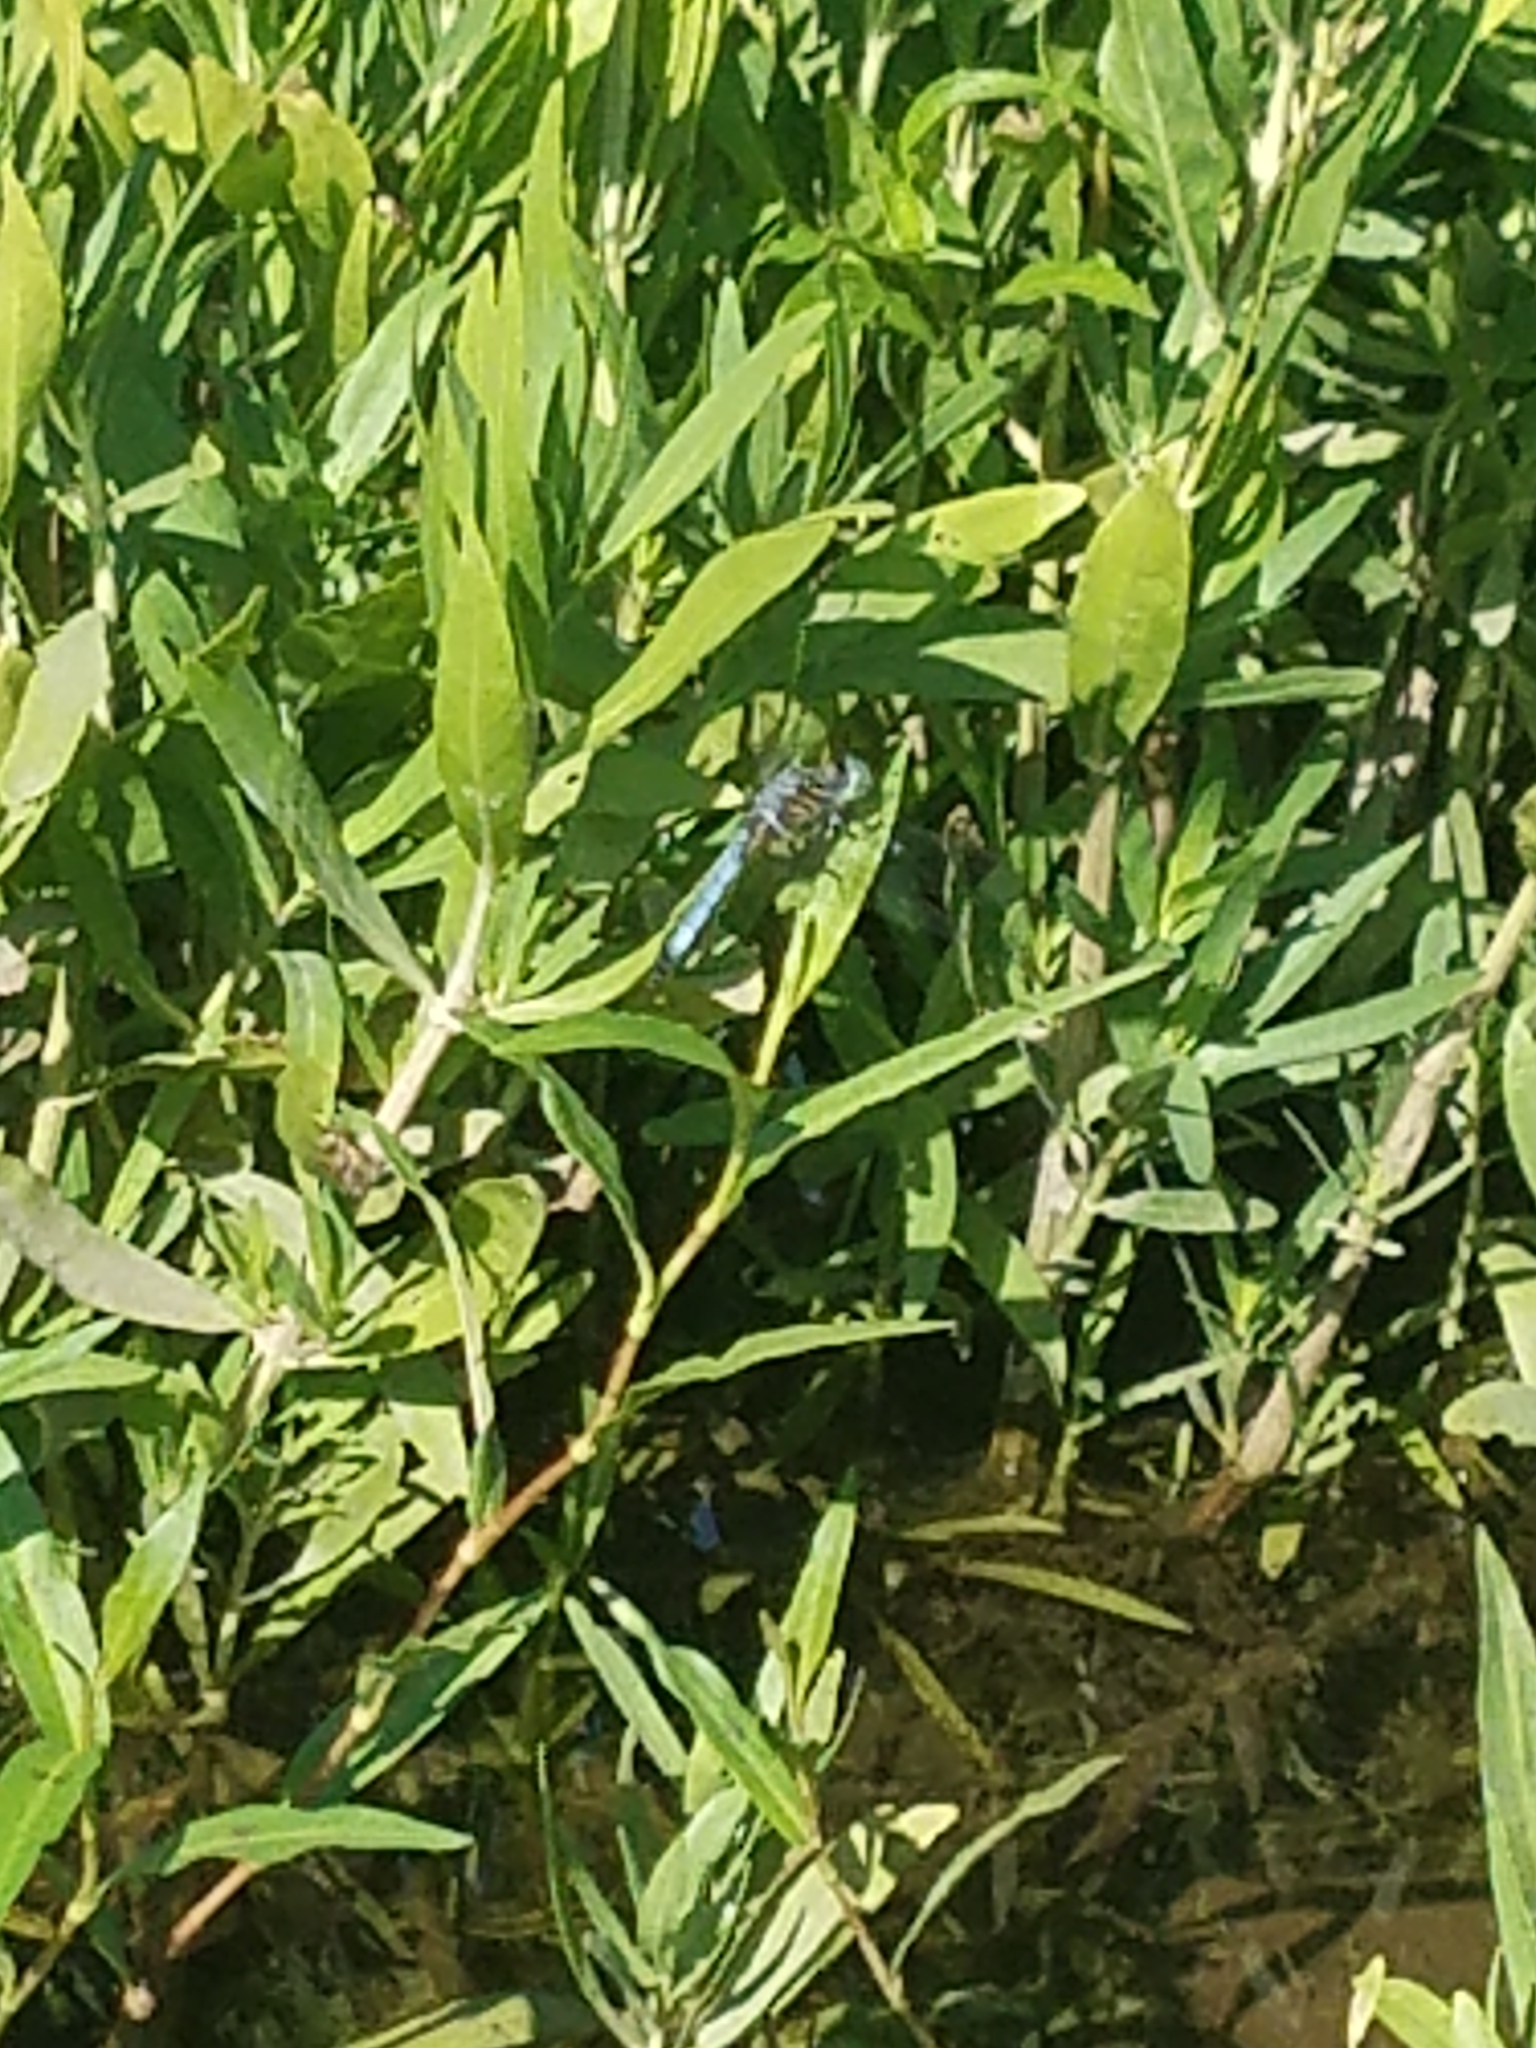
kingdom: Animalia
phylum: Arthropoda
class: Insecta
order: Odonata
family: Libellulidae
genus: Pachydiplax
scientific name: Pachydiplax longipennis
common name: Blue dasher
